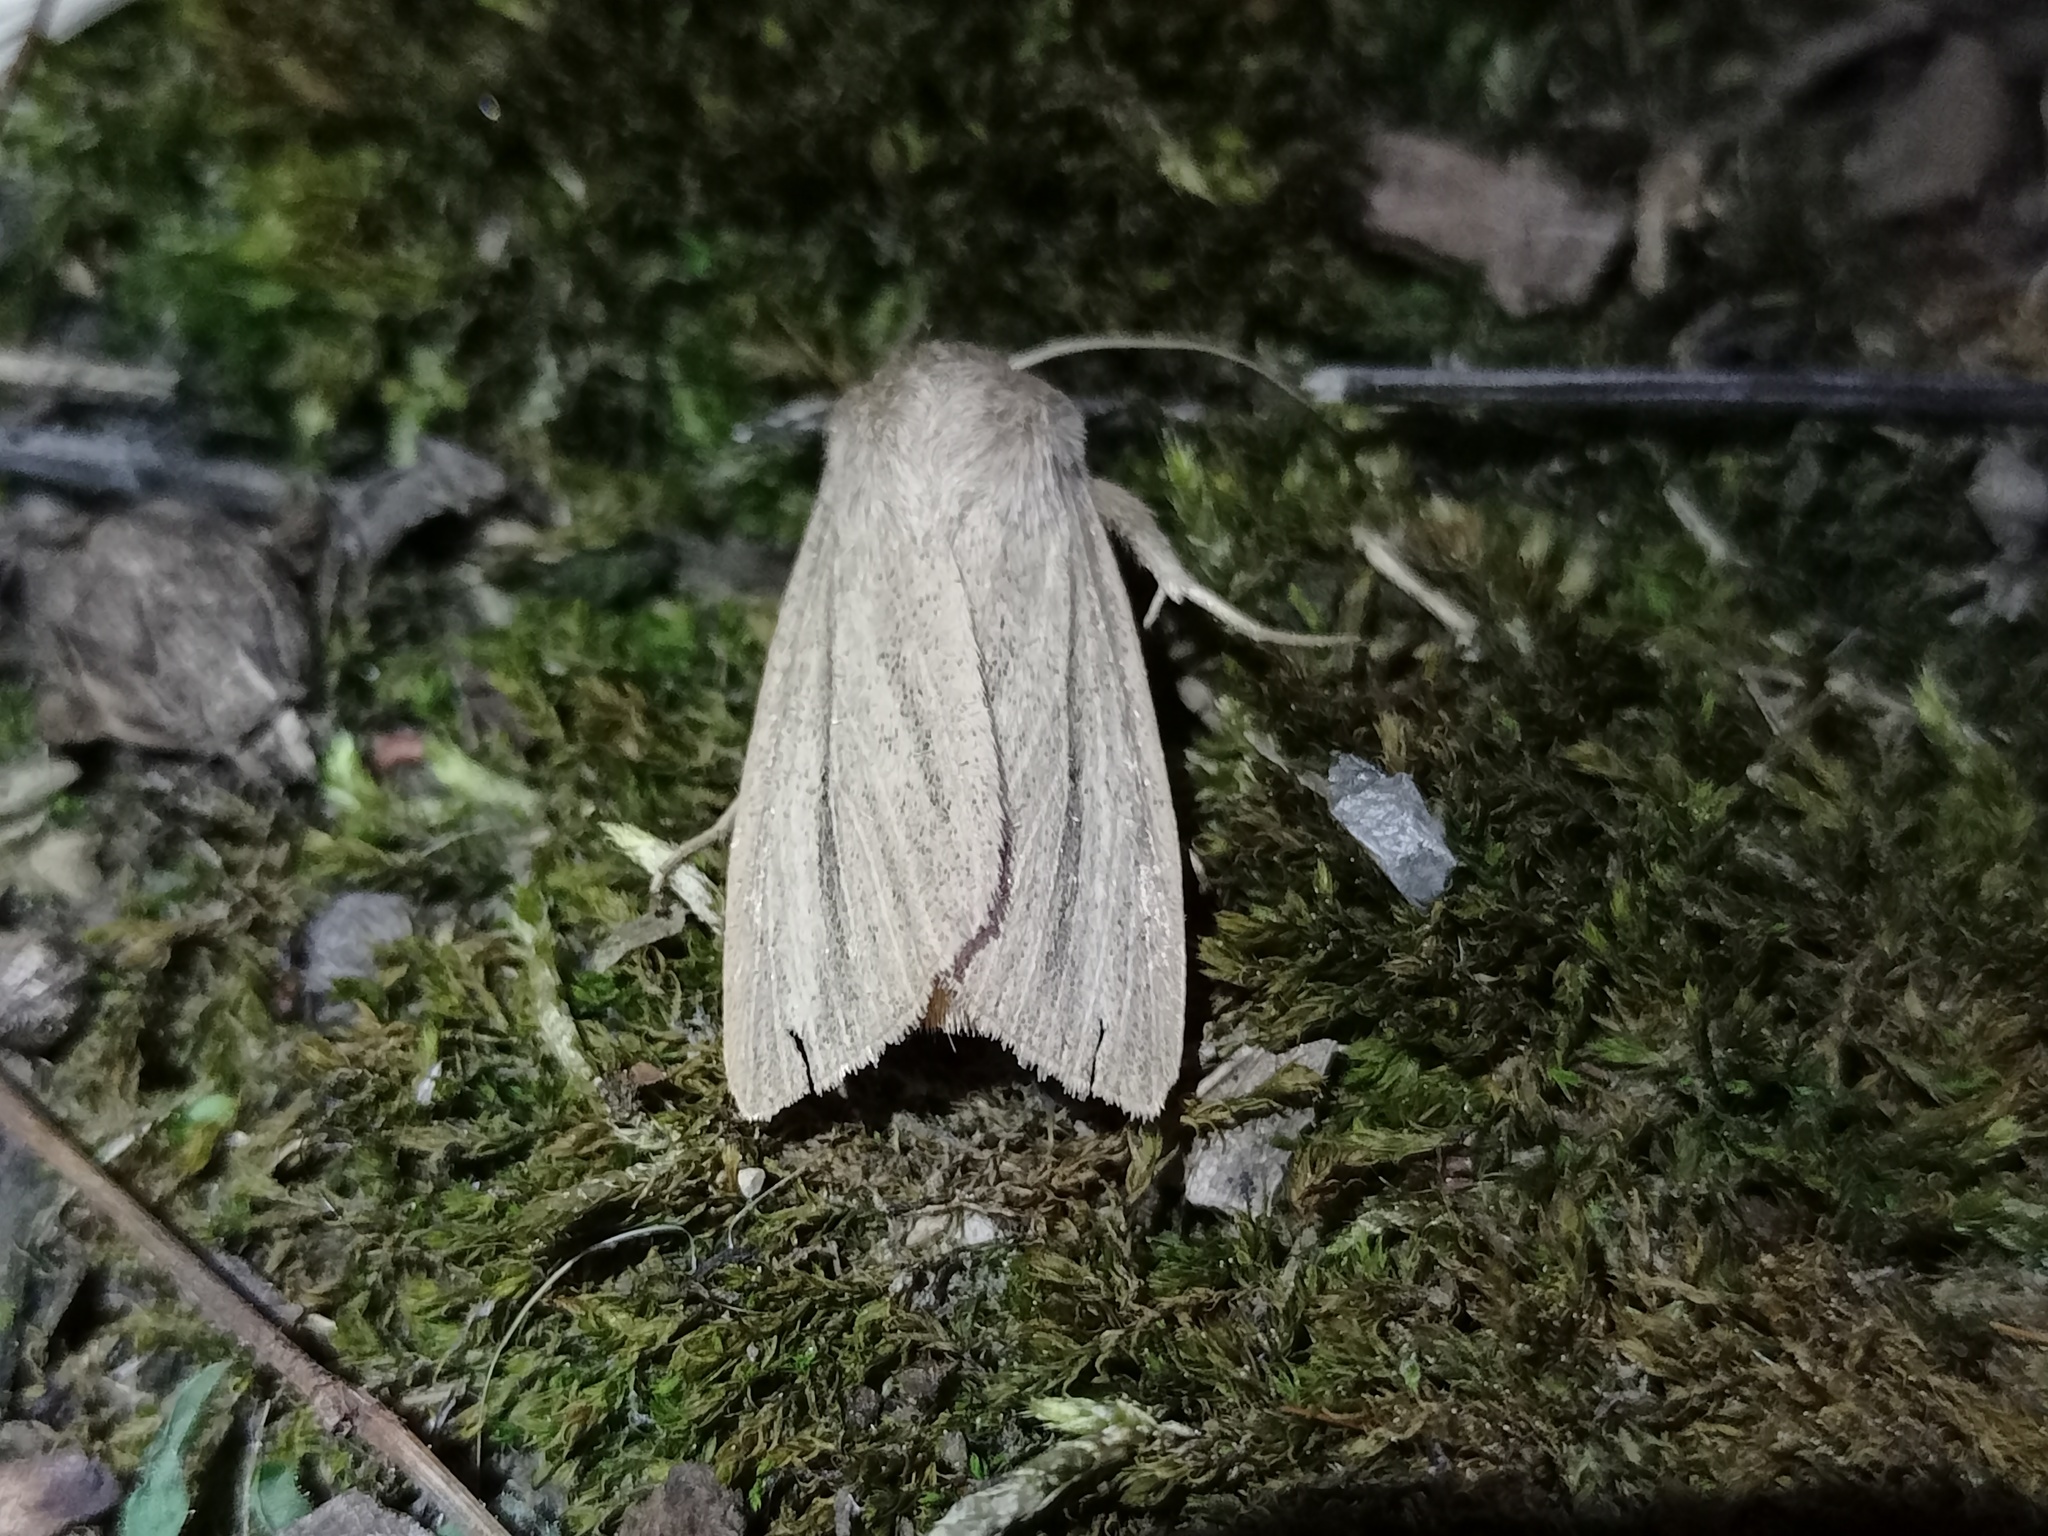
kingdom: Animalia
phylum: Arthropoda
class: Insecta
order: Lepidoptera
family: Noctuidae
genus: Mythimna
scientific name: Mythimna pudorina
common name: Striped wainscot
